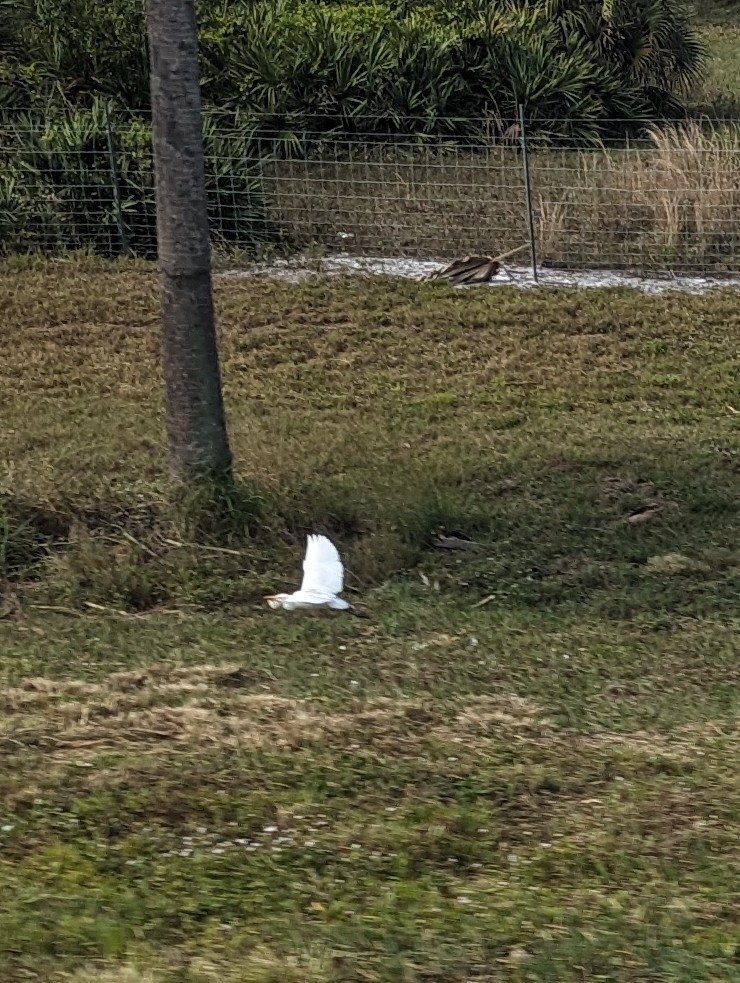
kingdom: Animalia
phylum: Chordata
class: Aves
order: Pelecaniformes
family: Ardeidae
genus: Bubulcus
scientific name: Bubulcus ibis
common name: Cattle egret
